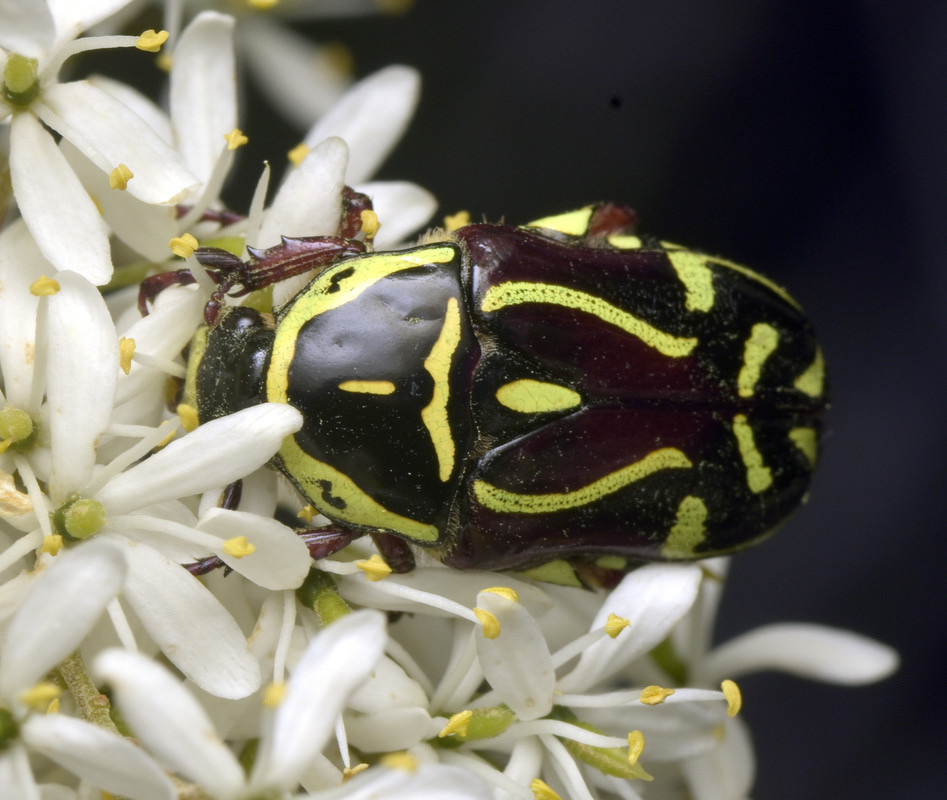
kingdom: Animalia
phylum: Arthropoda
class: Insecta
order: Coleoptera
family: Scarabaeidae
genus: Eupoecila
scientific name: Eupoecila australasiae
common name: Fiddler beetle
